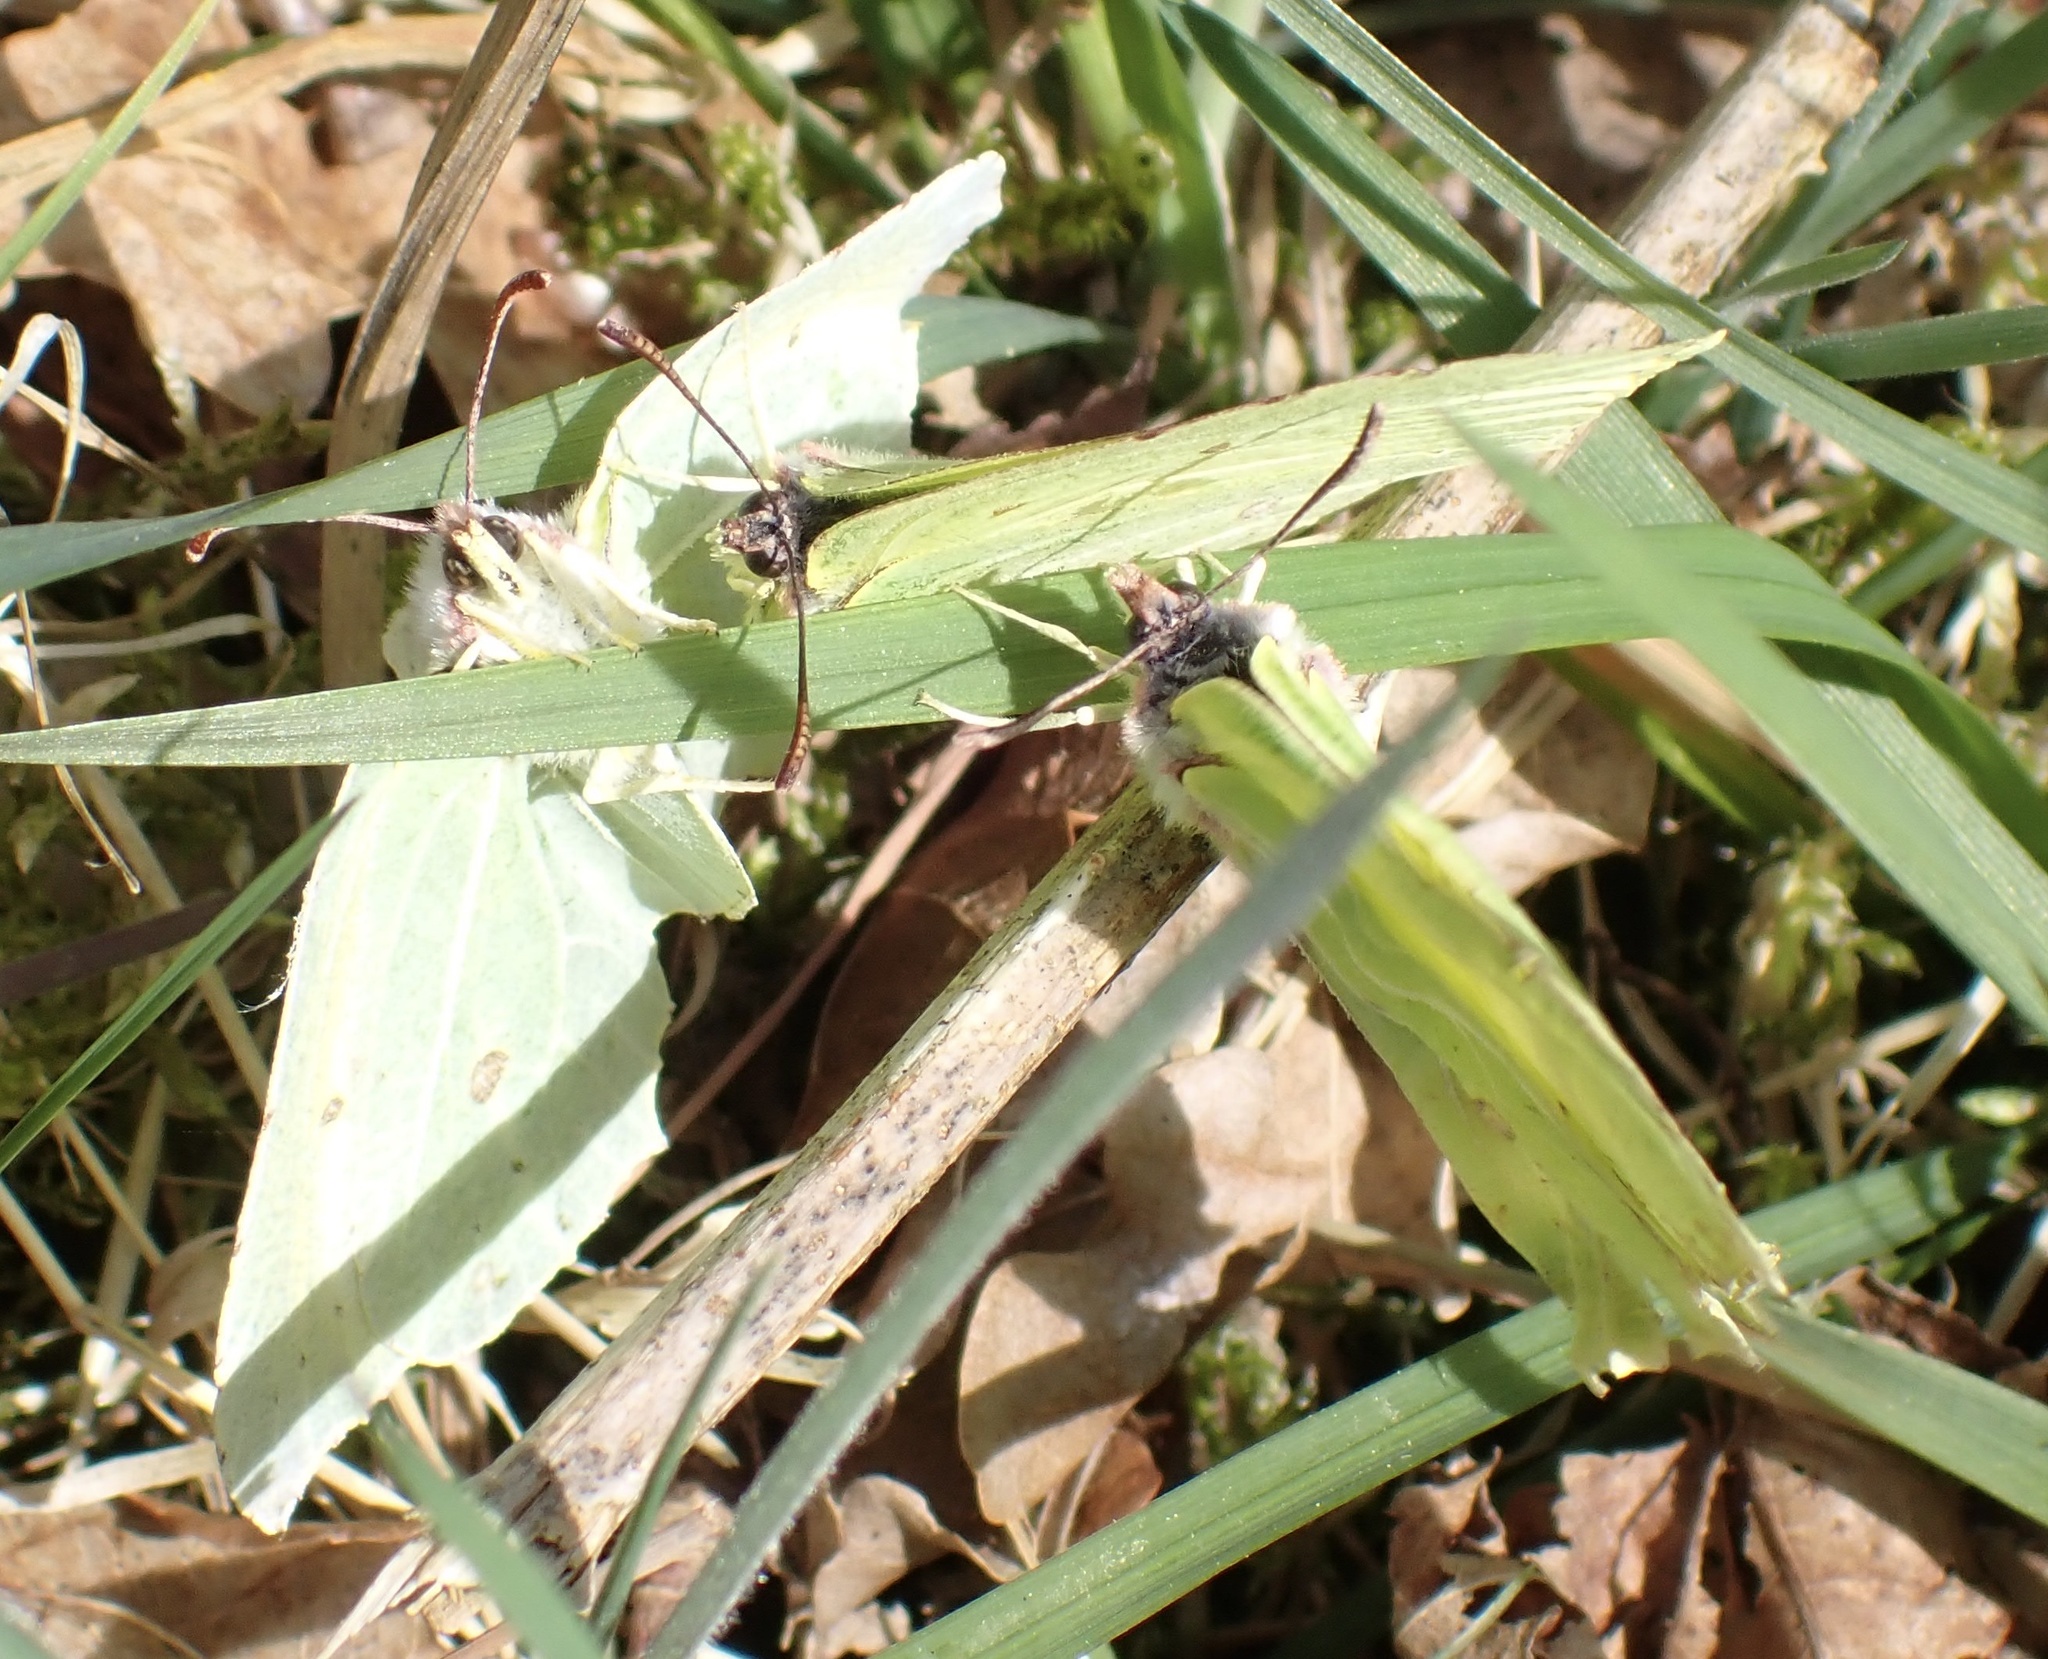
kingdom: Animalia
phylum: Arthropoda
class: Insecta
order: Lepidoptera
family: Pieridae
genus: Gonepteryx
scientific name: Gonepteryx rhamni
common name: Brimstone
